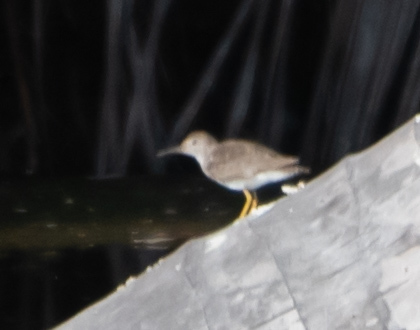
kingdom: Animalia
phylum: Chordata
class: Aves
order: Charadriiformes
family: Scolopacidae
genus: Actitis
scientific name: Actitis macularius
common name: Spotted sandpiper
